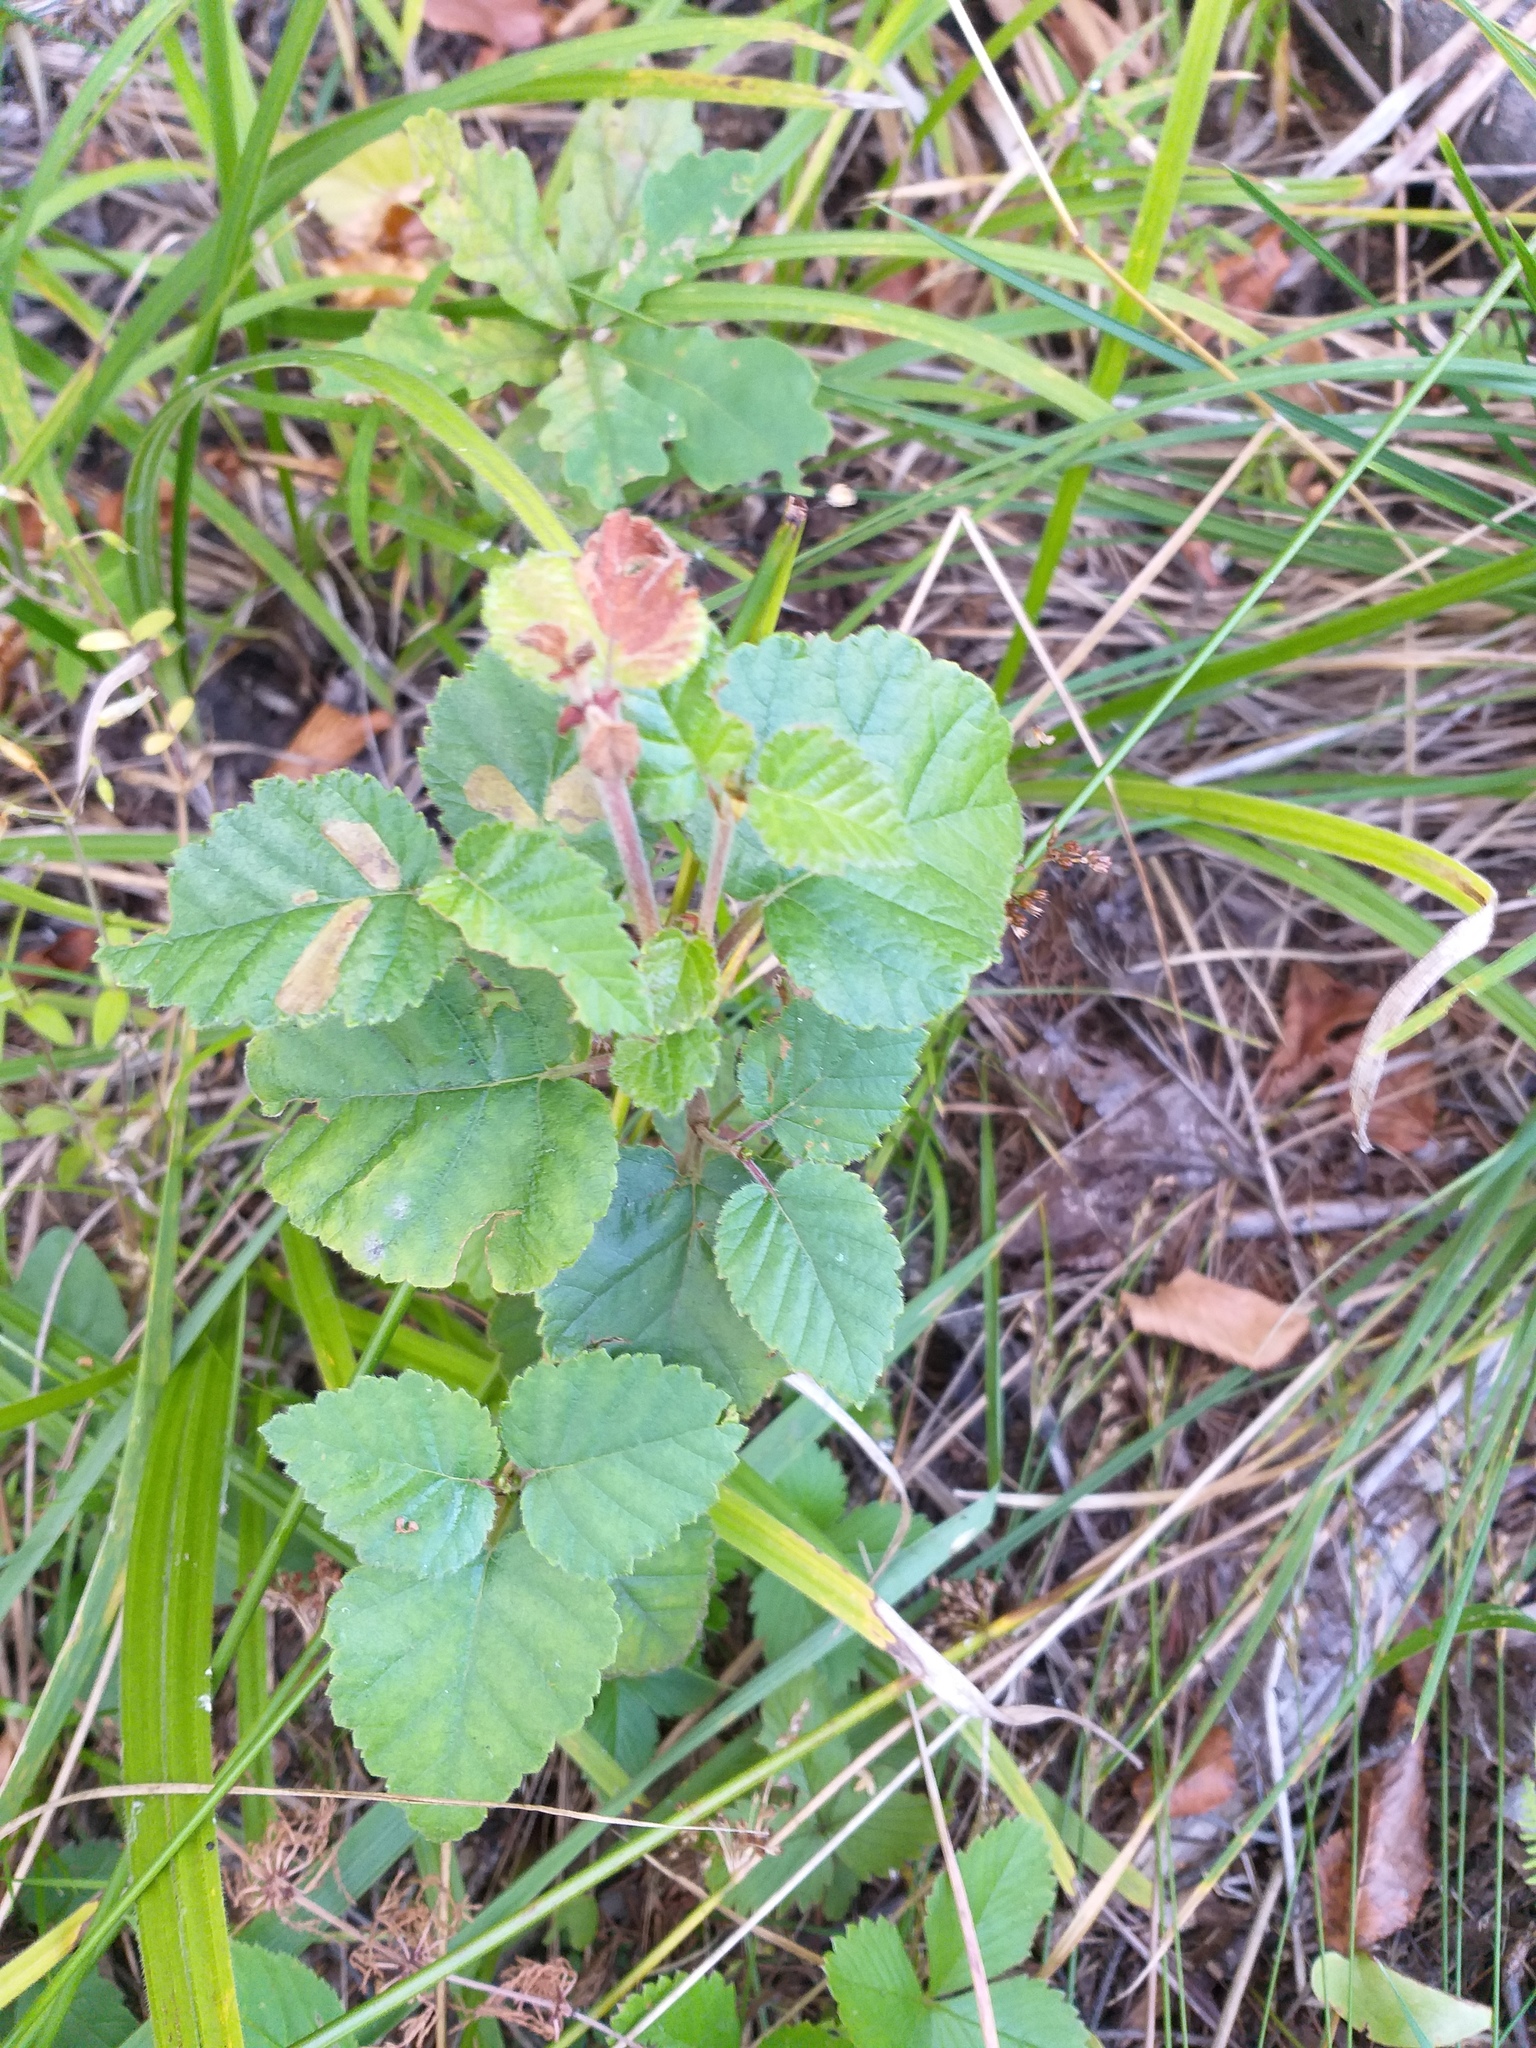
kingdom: Plantae
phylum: Tracheophyta
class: Magnoliopsida
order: Fagales
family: Betulaceae
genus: Betula
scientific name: Betula pubescens
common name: Downy birch
